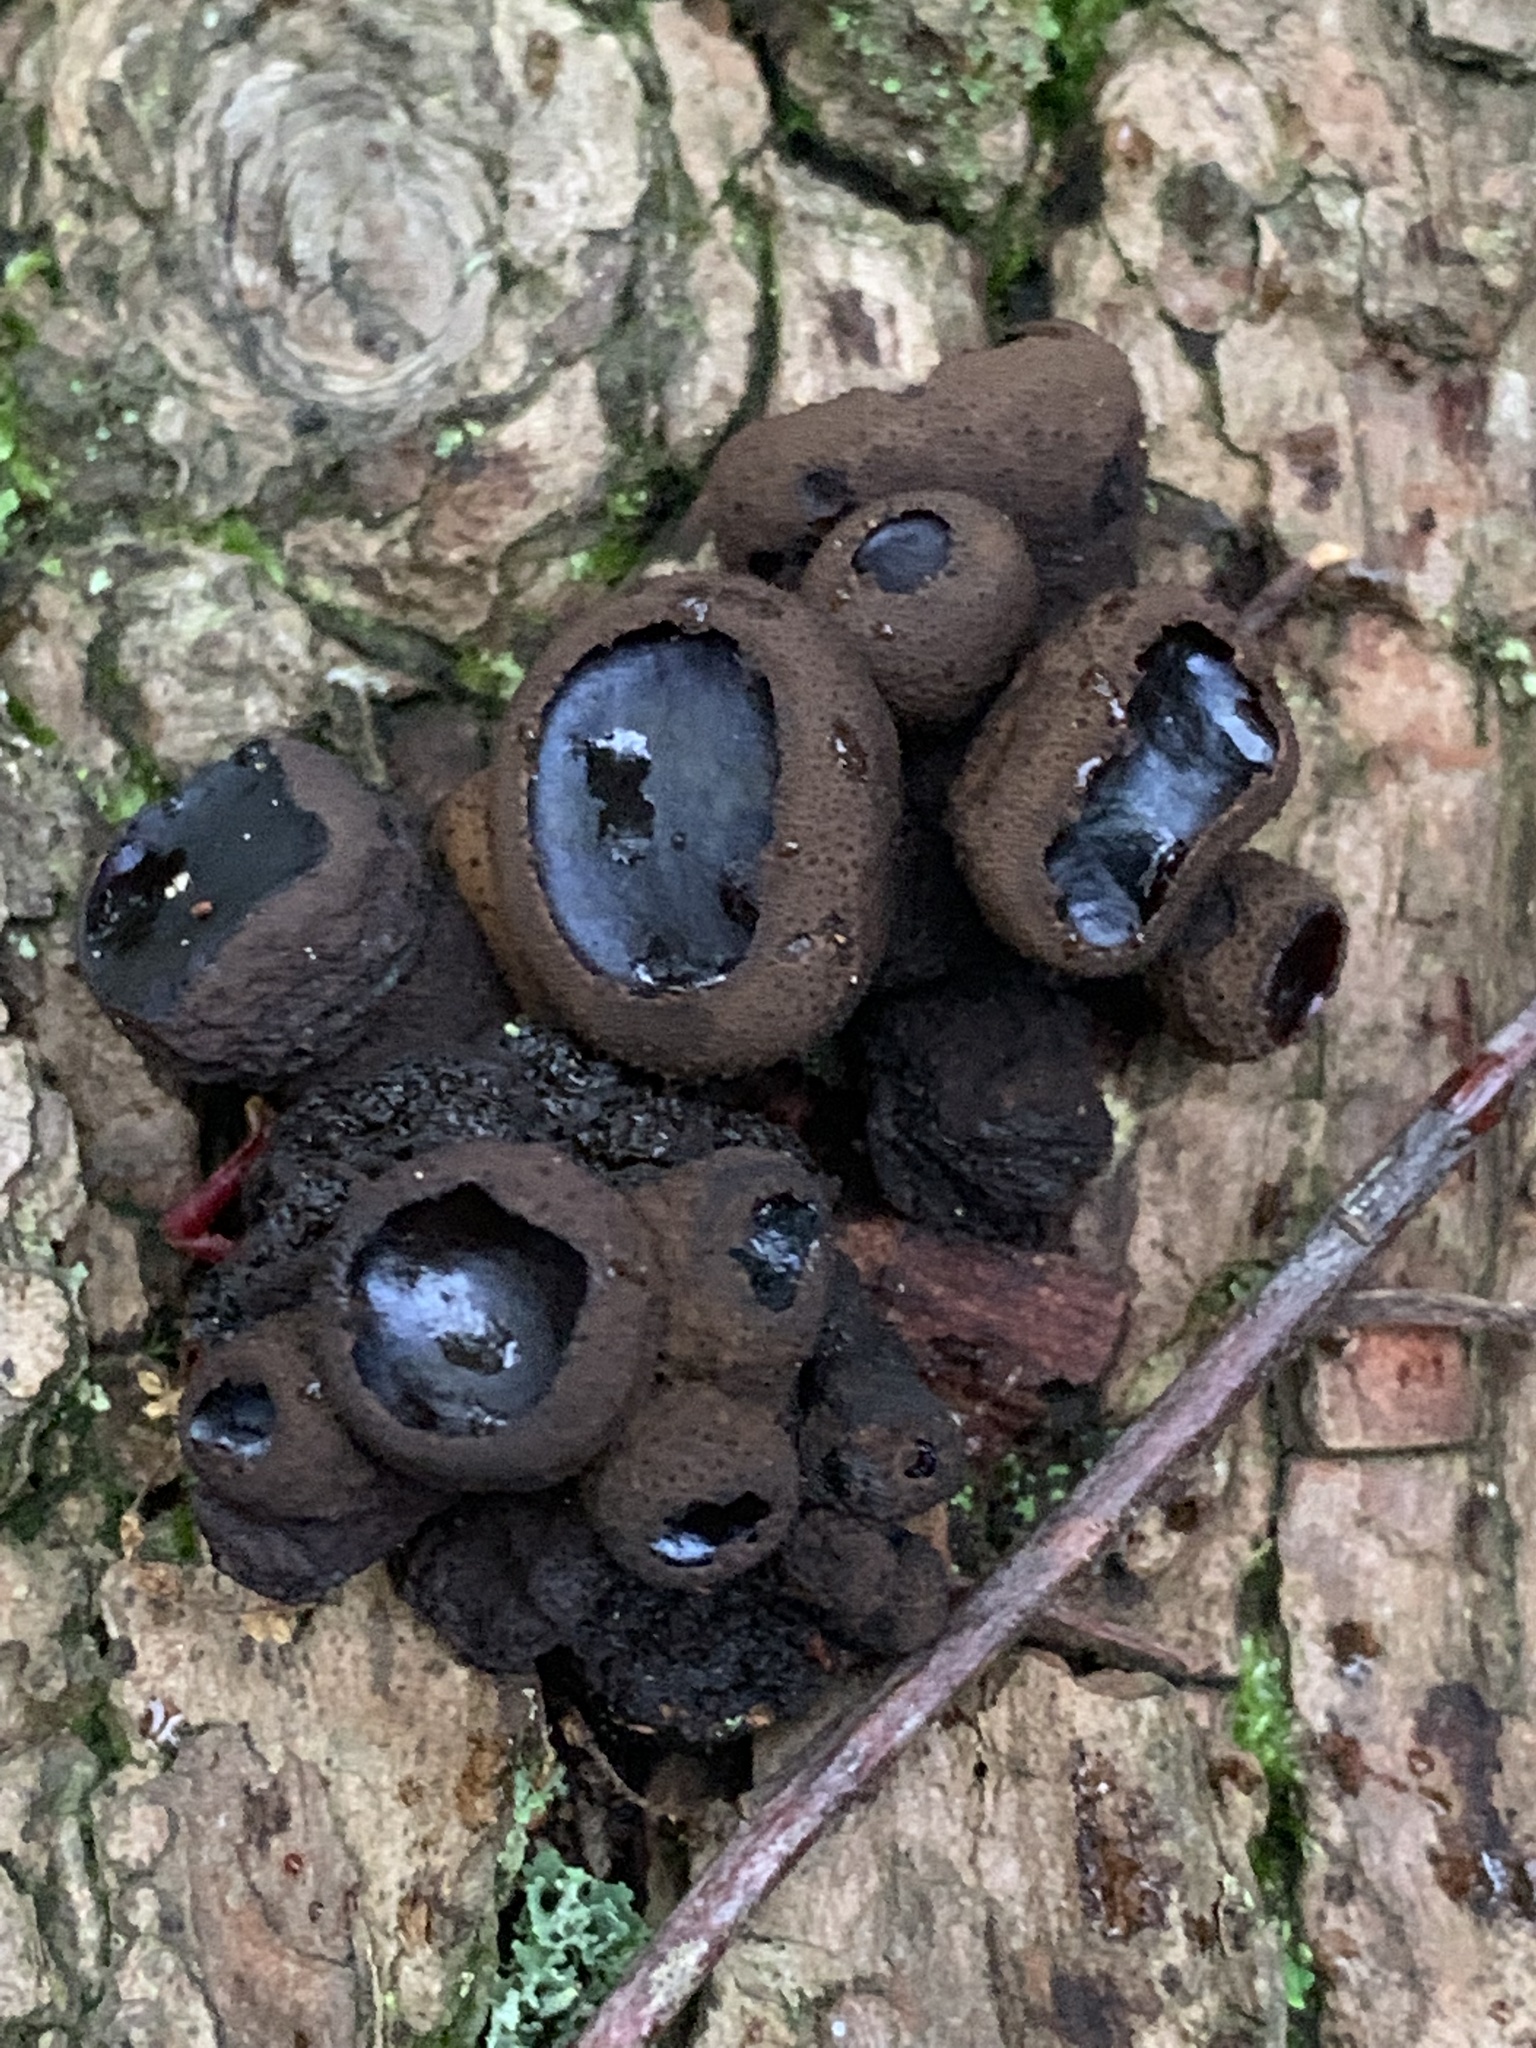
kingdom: Fungi
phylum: Ascomycota
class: Leotiomycetes
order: Phacidiales
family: Phacidiaceae
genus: Bulgaria
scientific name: Bulgaria inquinans
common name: Black bulgar
